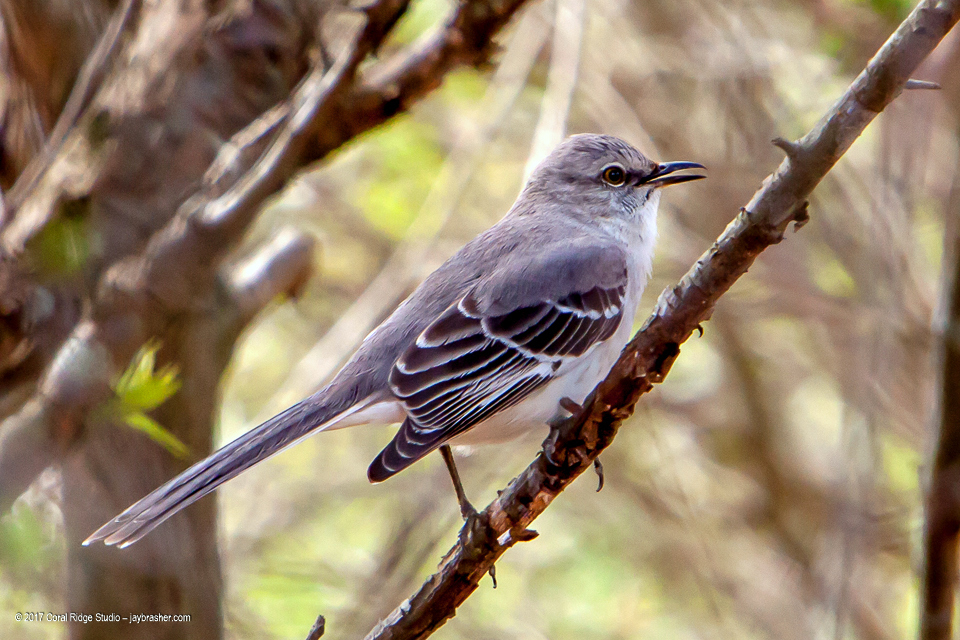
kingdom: Animalia
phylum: Chordata
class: Aves
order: Passeriformes
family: Mimidae
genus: Mimus
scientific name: Mimus polyglottos
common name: Northern mockingbird
